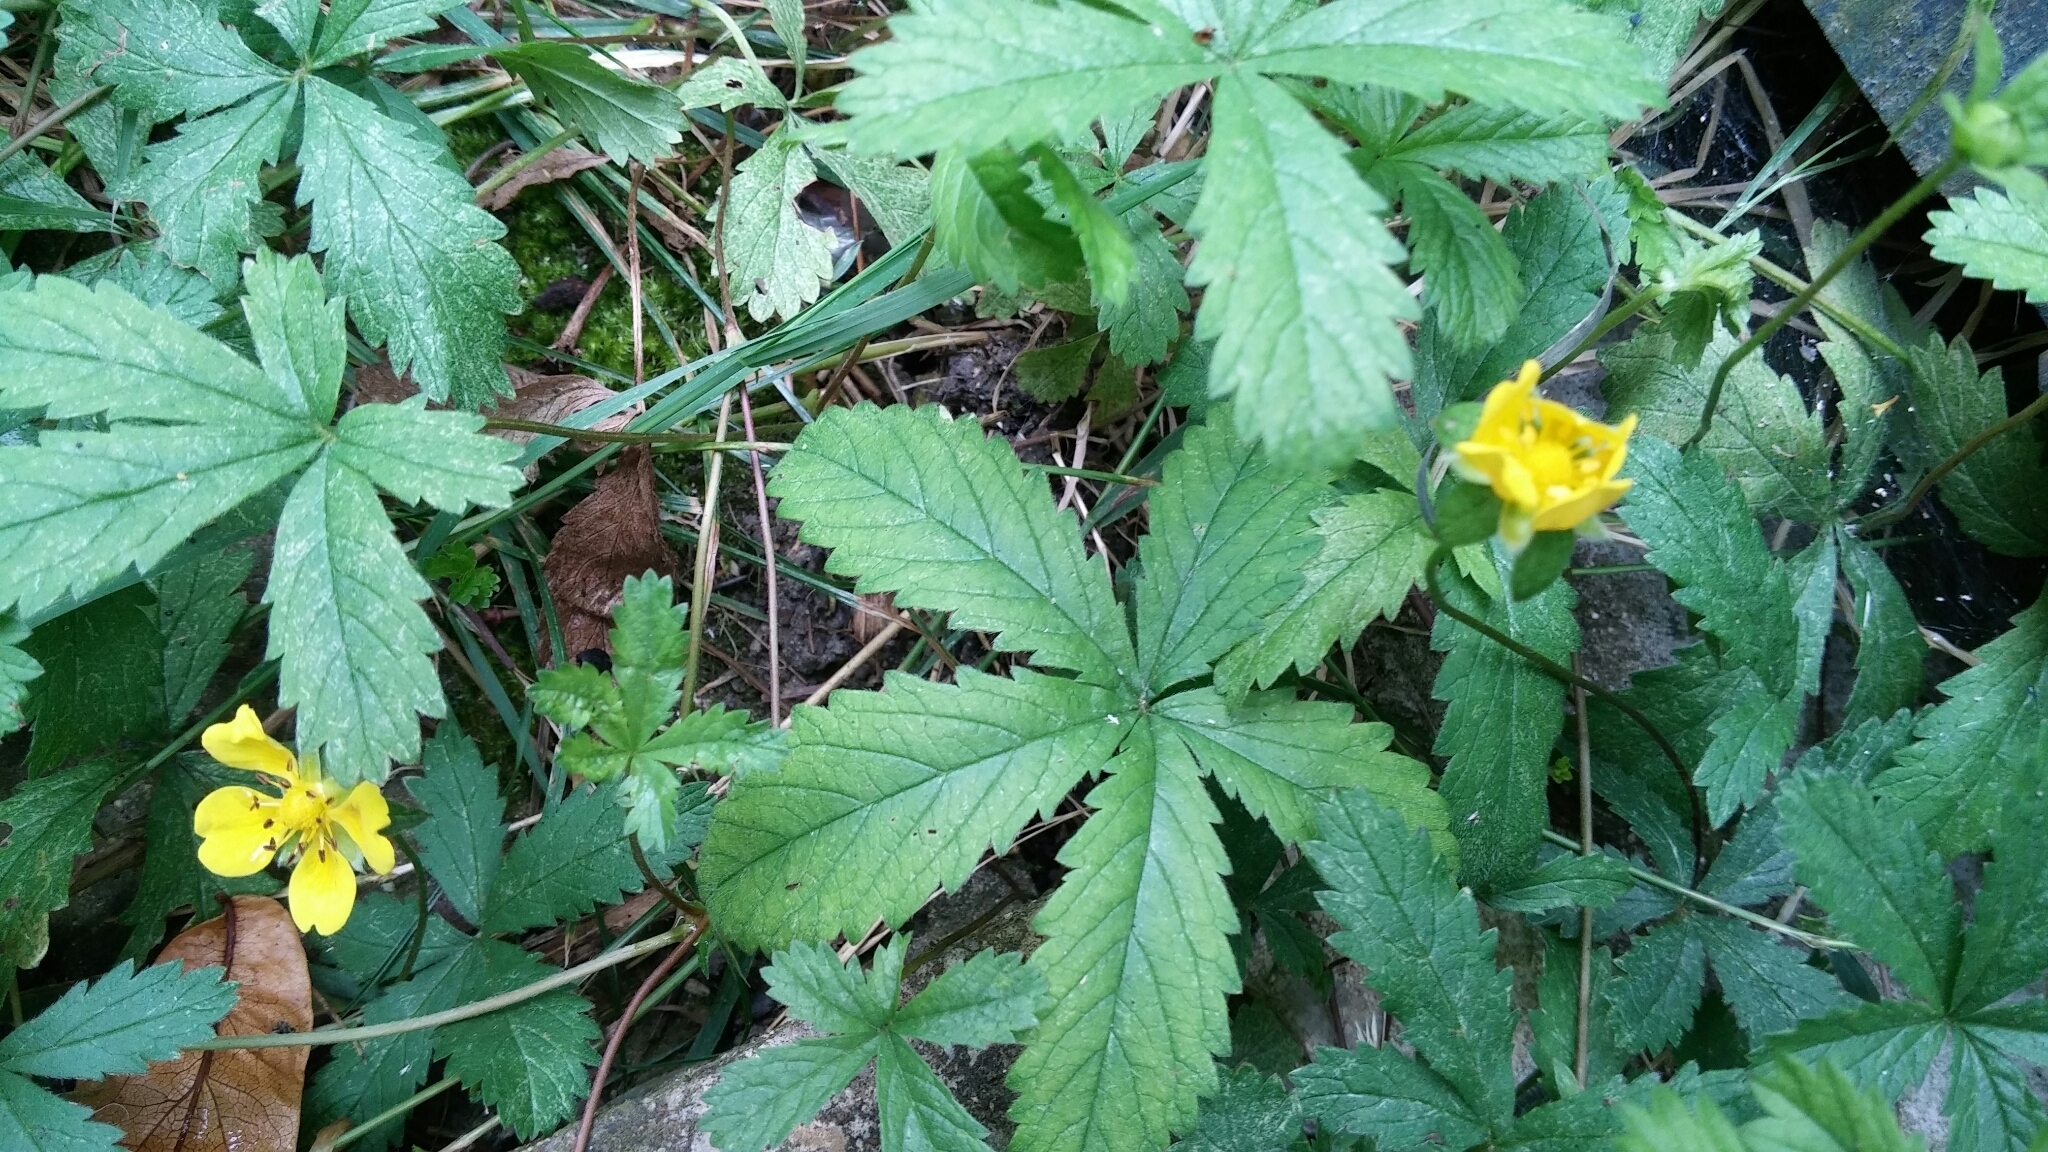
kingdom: Plantae
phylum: Tracheophyta
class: Magnoliopsida
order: Rosales
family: Rosaceae
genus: Potentilla
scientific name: Potentilla reptans
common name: Creeping cinquefoil
